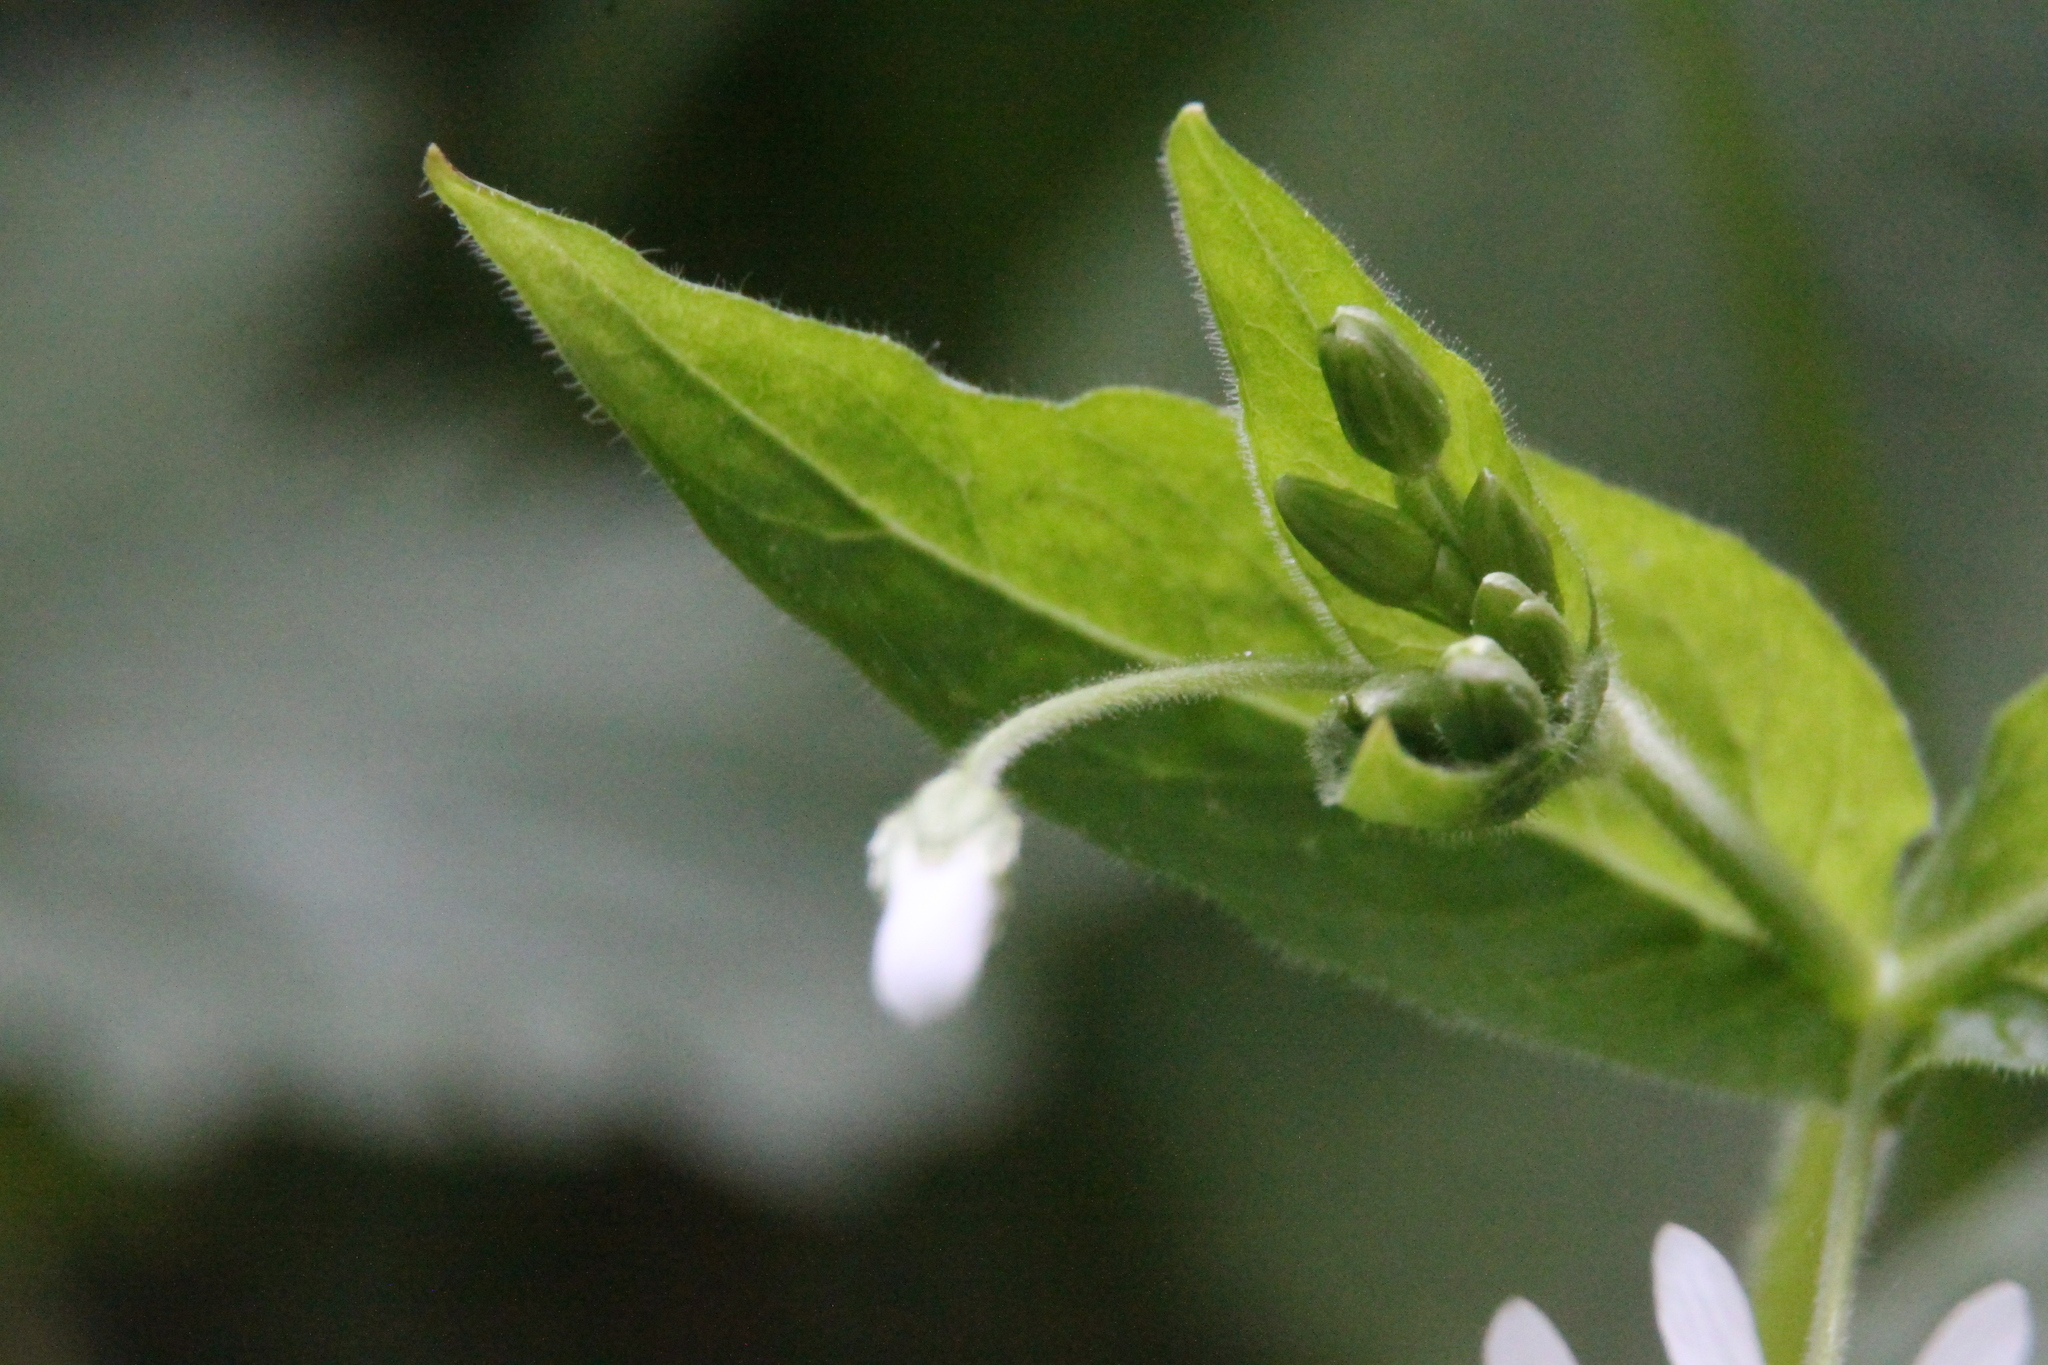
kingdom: Plantae
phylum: Tracheophyta
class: Magnoliopsida
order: Caryophyllales
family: Caryophyllaceae
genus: Stellaria
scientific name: Stellaria nemorum
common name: Wood stitchwort
